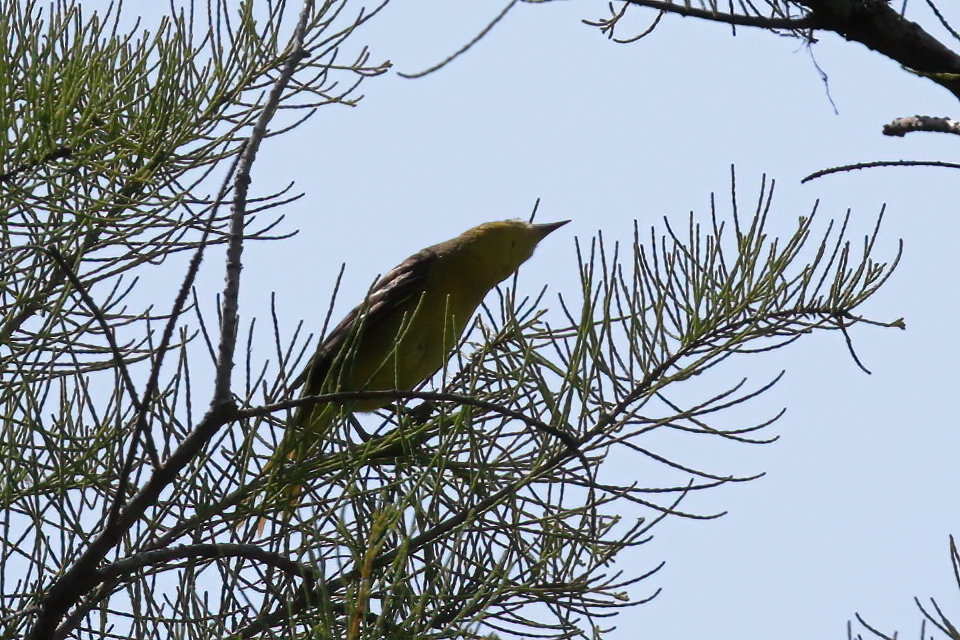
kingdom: Animalia
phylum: Chordata
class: Aves
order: Passeriformes
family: Icteridae
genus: Icterus
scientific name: Icterus spurius
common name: Orchard oriole
